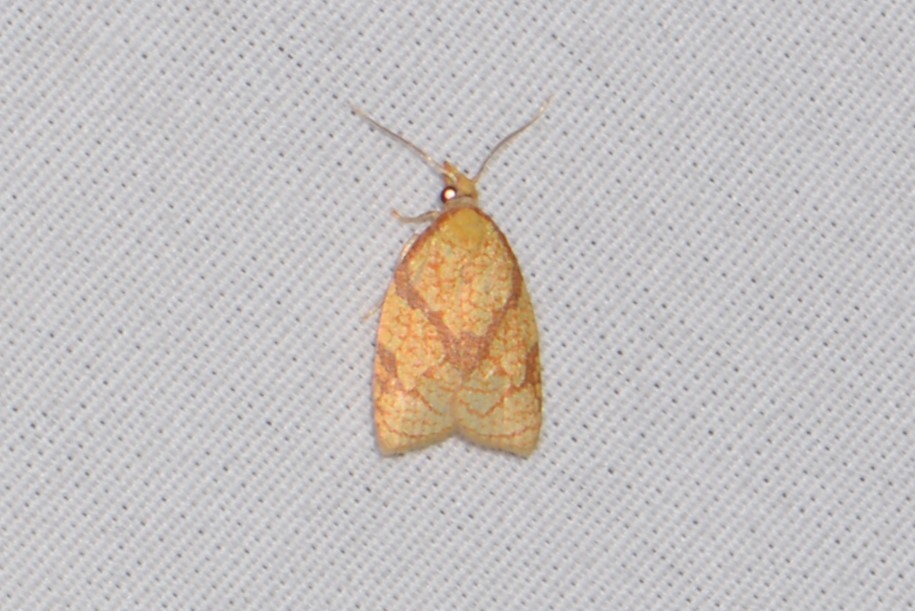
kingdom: Animalia
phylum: Arthropoda
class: Insecta
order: Lepidoptera
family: Tortricidae
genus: Cenopis
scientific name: Cenopis reticulatana
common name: Reticulated fruitworm moth
